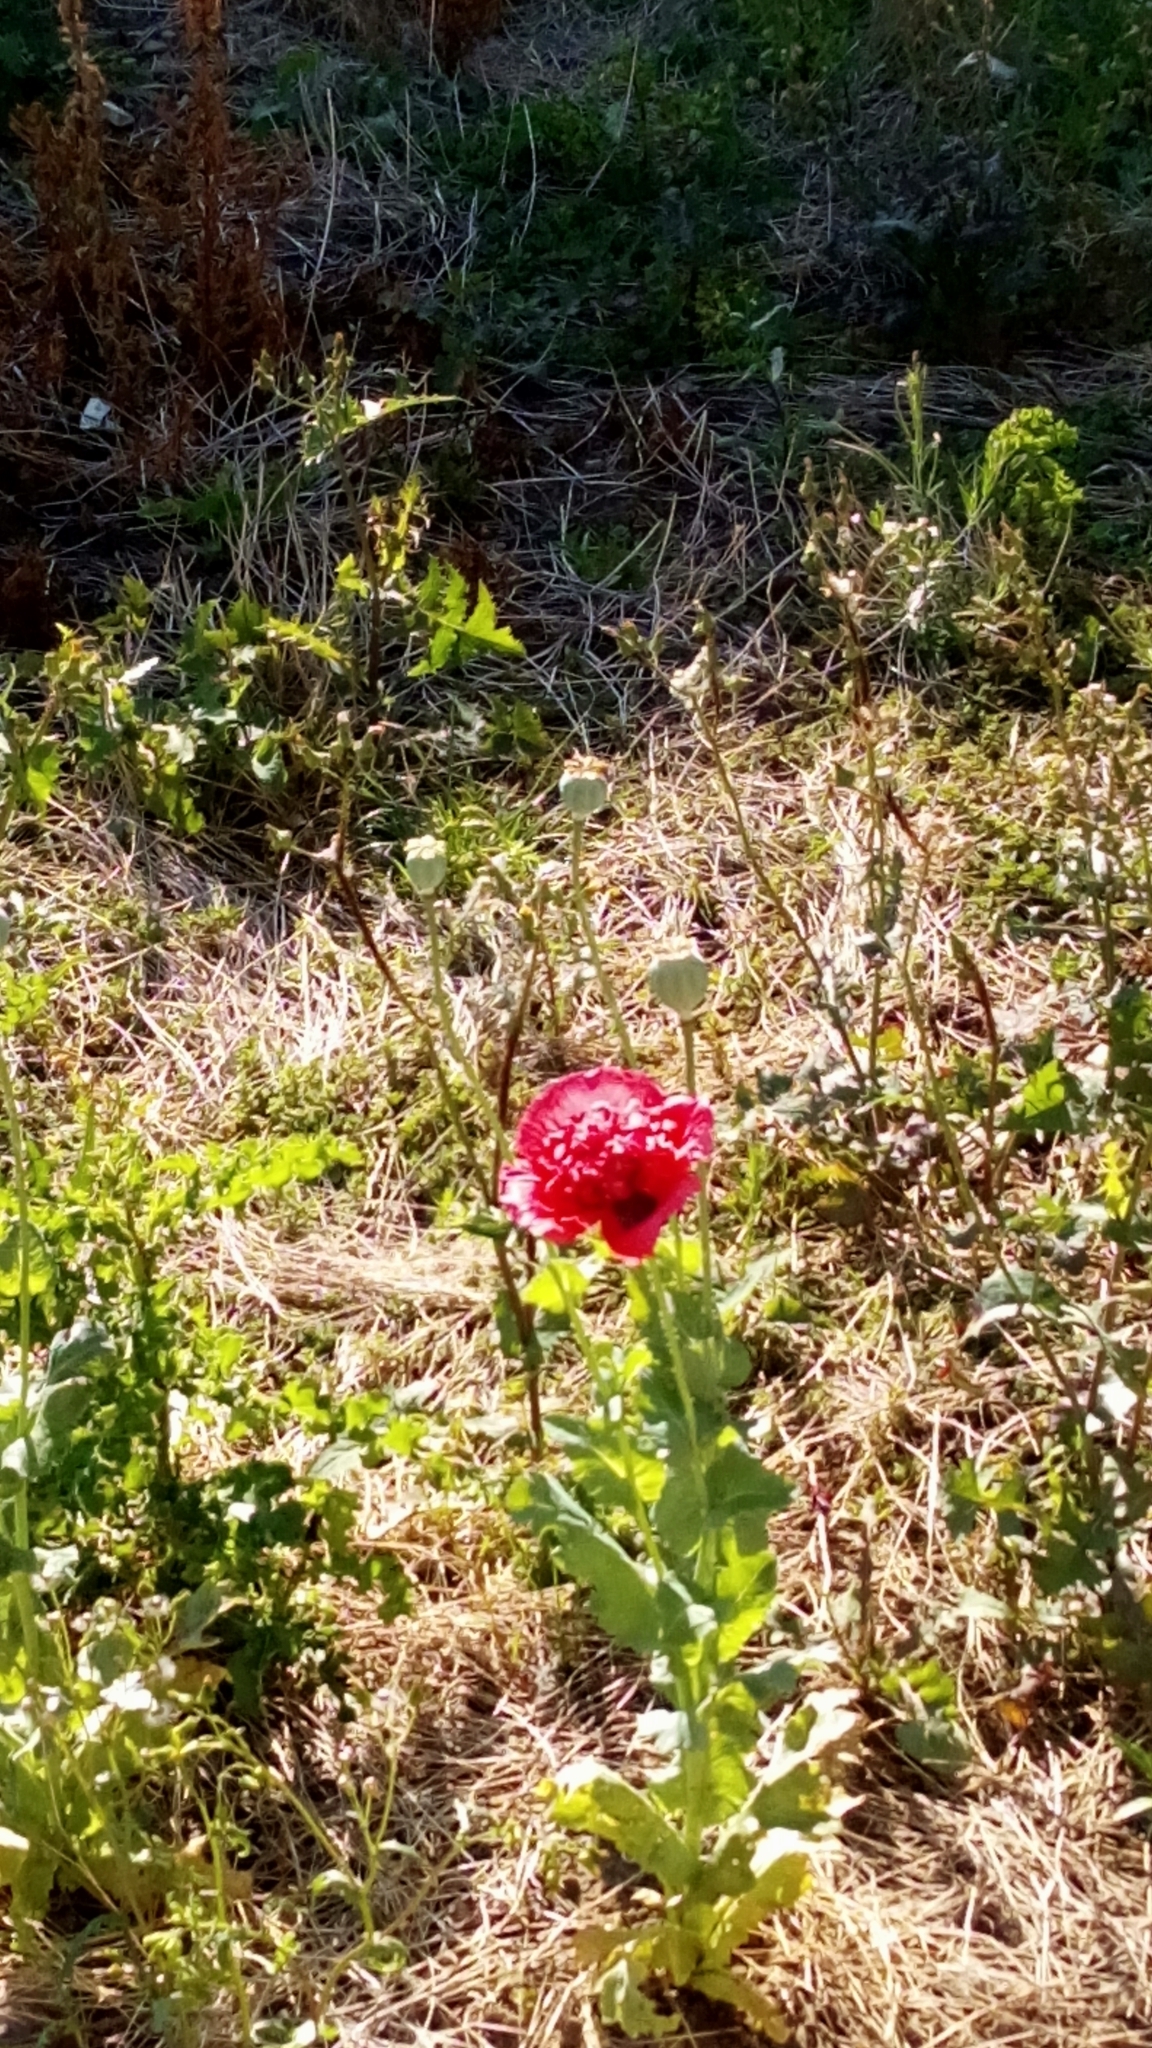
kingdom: Plantae
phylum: Tracheophyta
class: Magnoliopsida
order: Ranunculales
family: Papaveraceae
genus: Papaver
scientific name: Papaver somniferum
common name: Opium poppy
